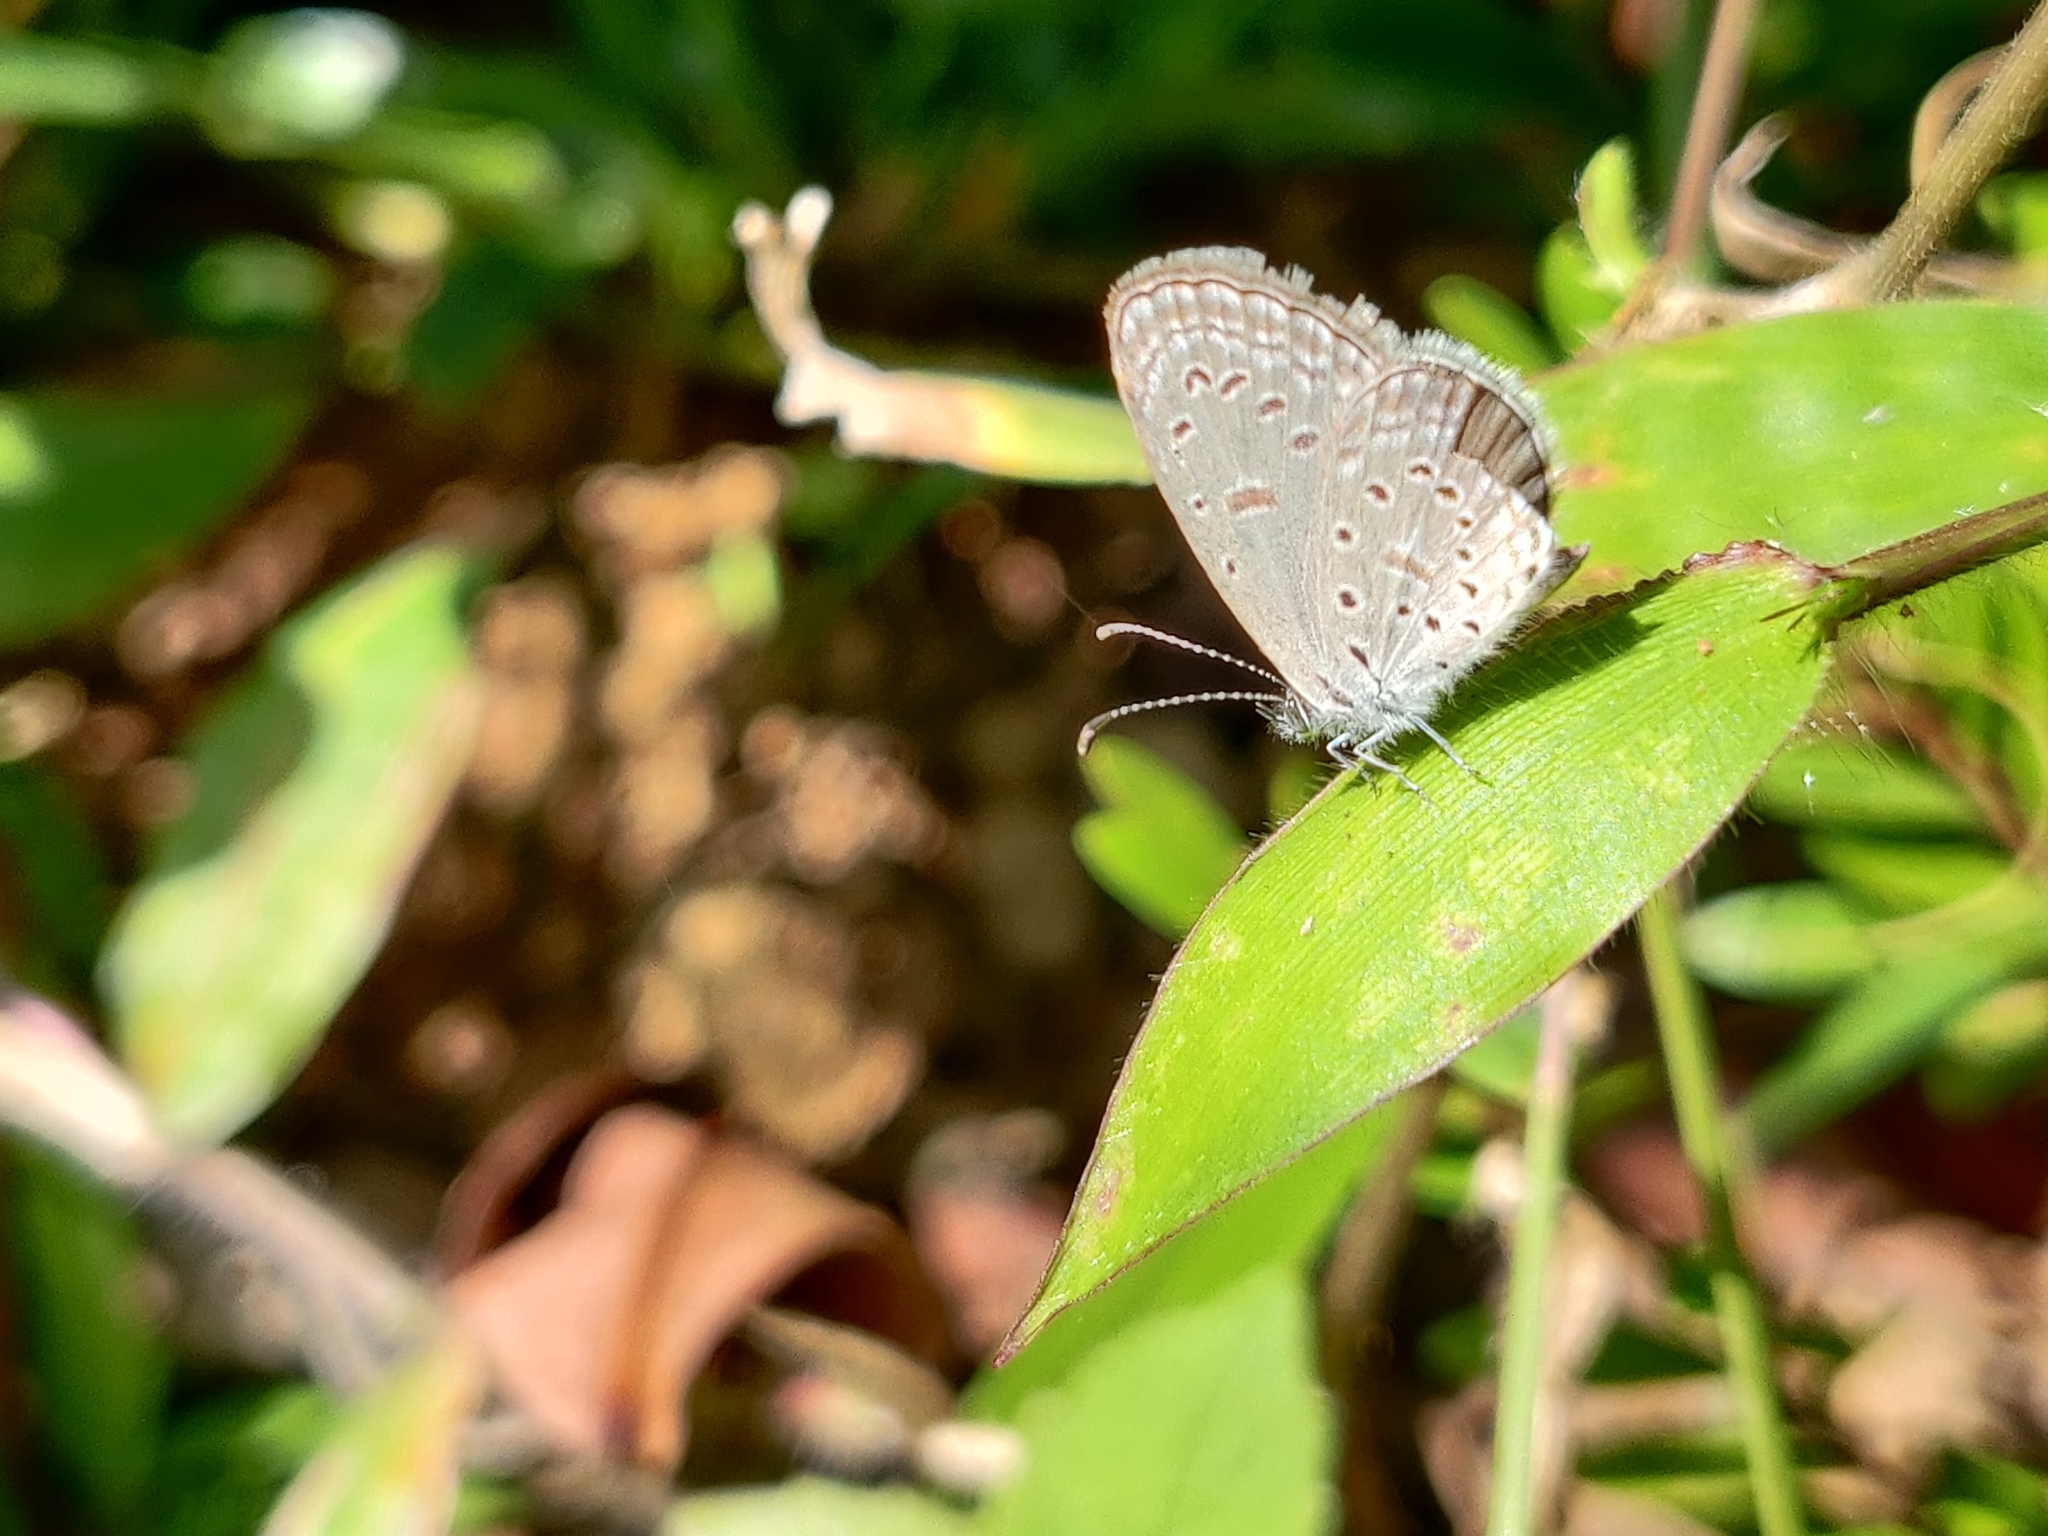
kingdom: Animalia
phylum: Arthropoda
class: Insecta
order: Lepidoptera
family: Lycaenidae
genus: Zizula
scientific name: Zizula hylax
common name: Gaika blue
